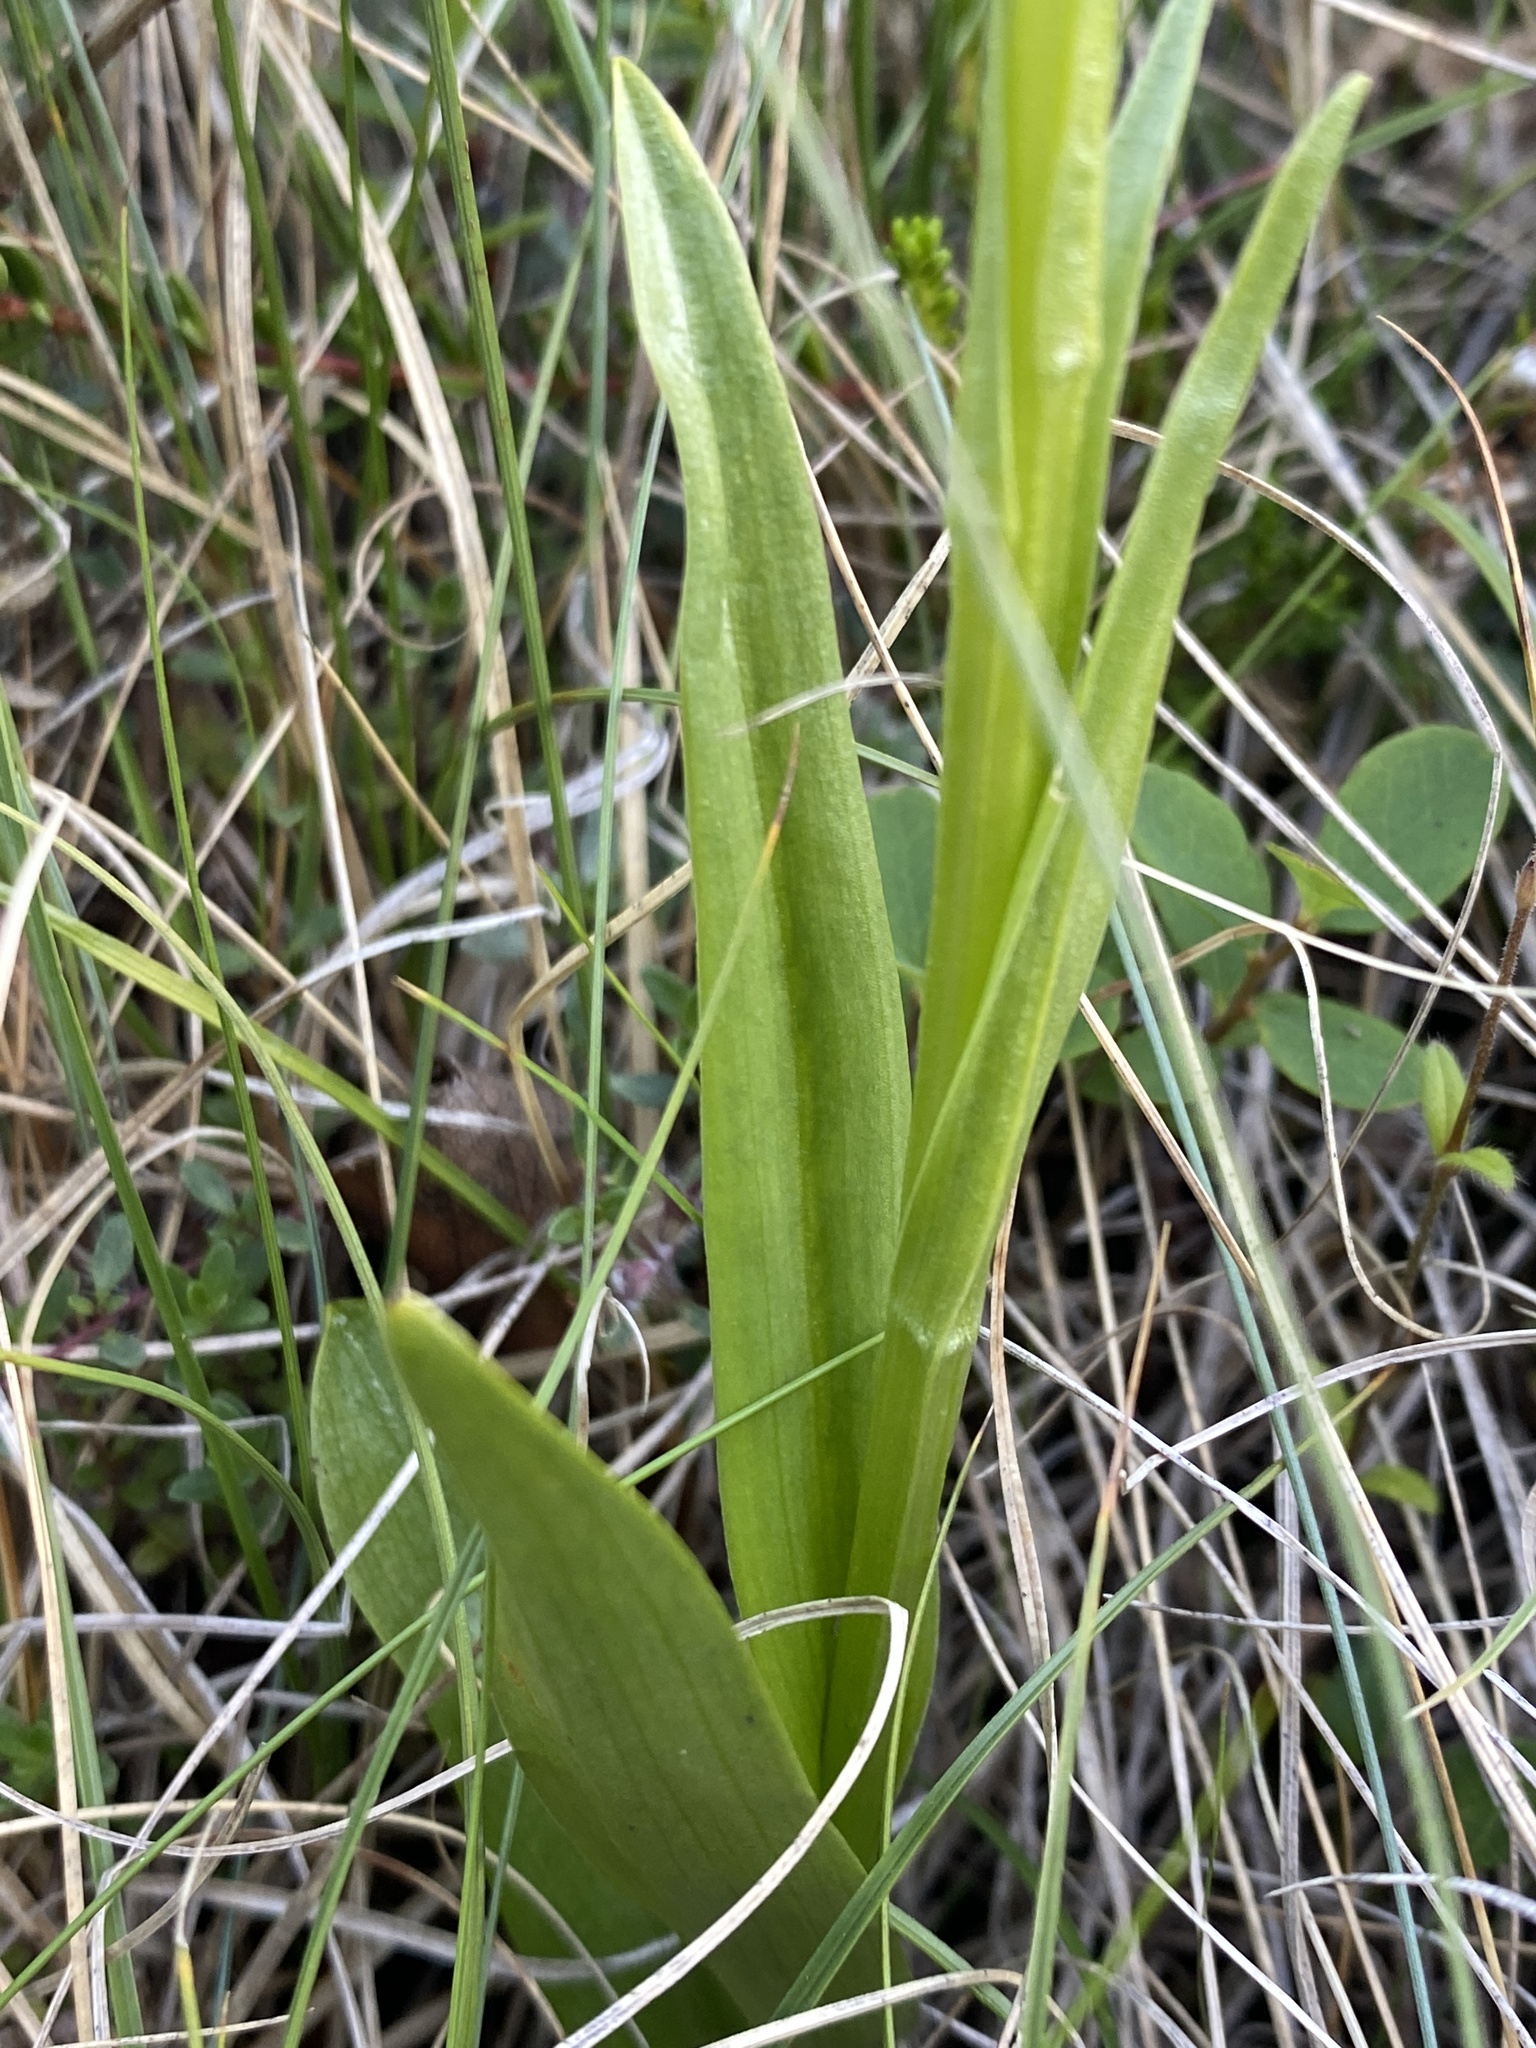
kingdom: Plantae
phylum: Tracheophyta
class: Liliopsida
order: Asparagales
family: Orchidaceae
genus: Platanthera
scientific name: Platanthera hyperborea
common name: Northern green orchid
